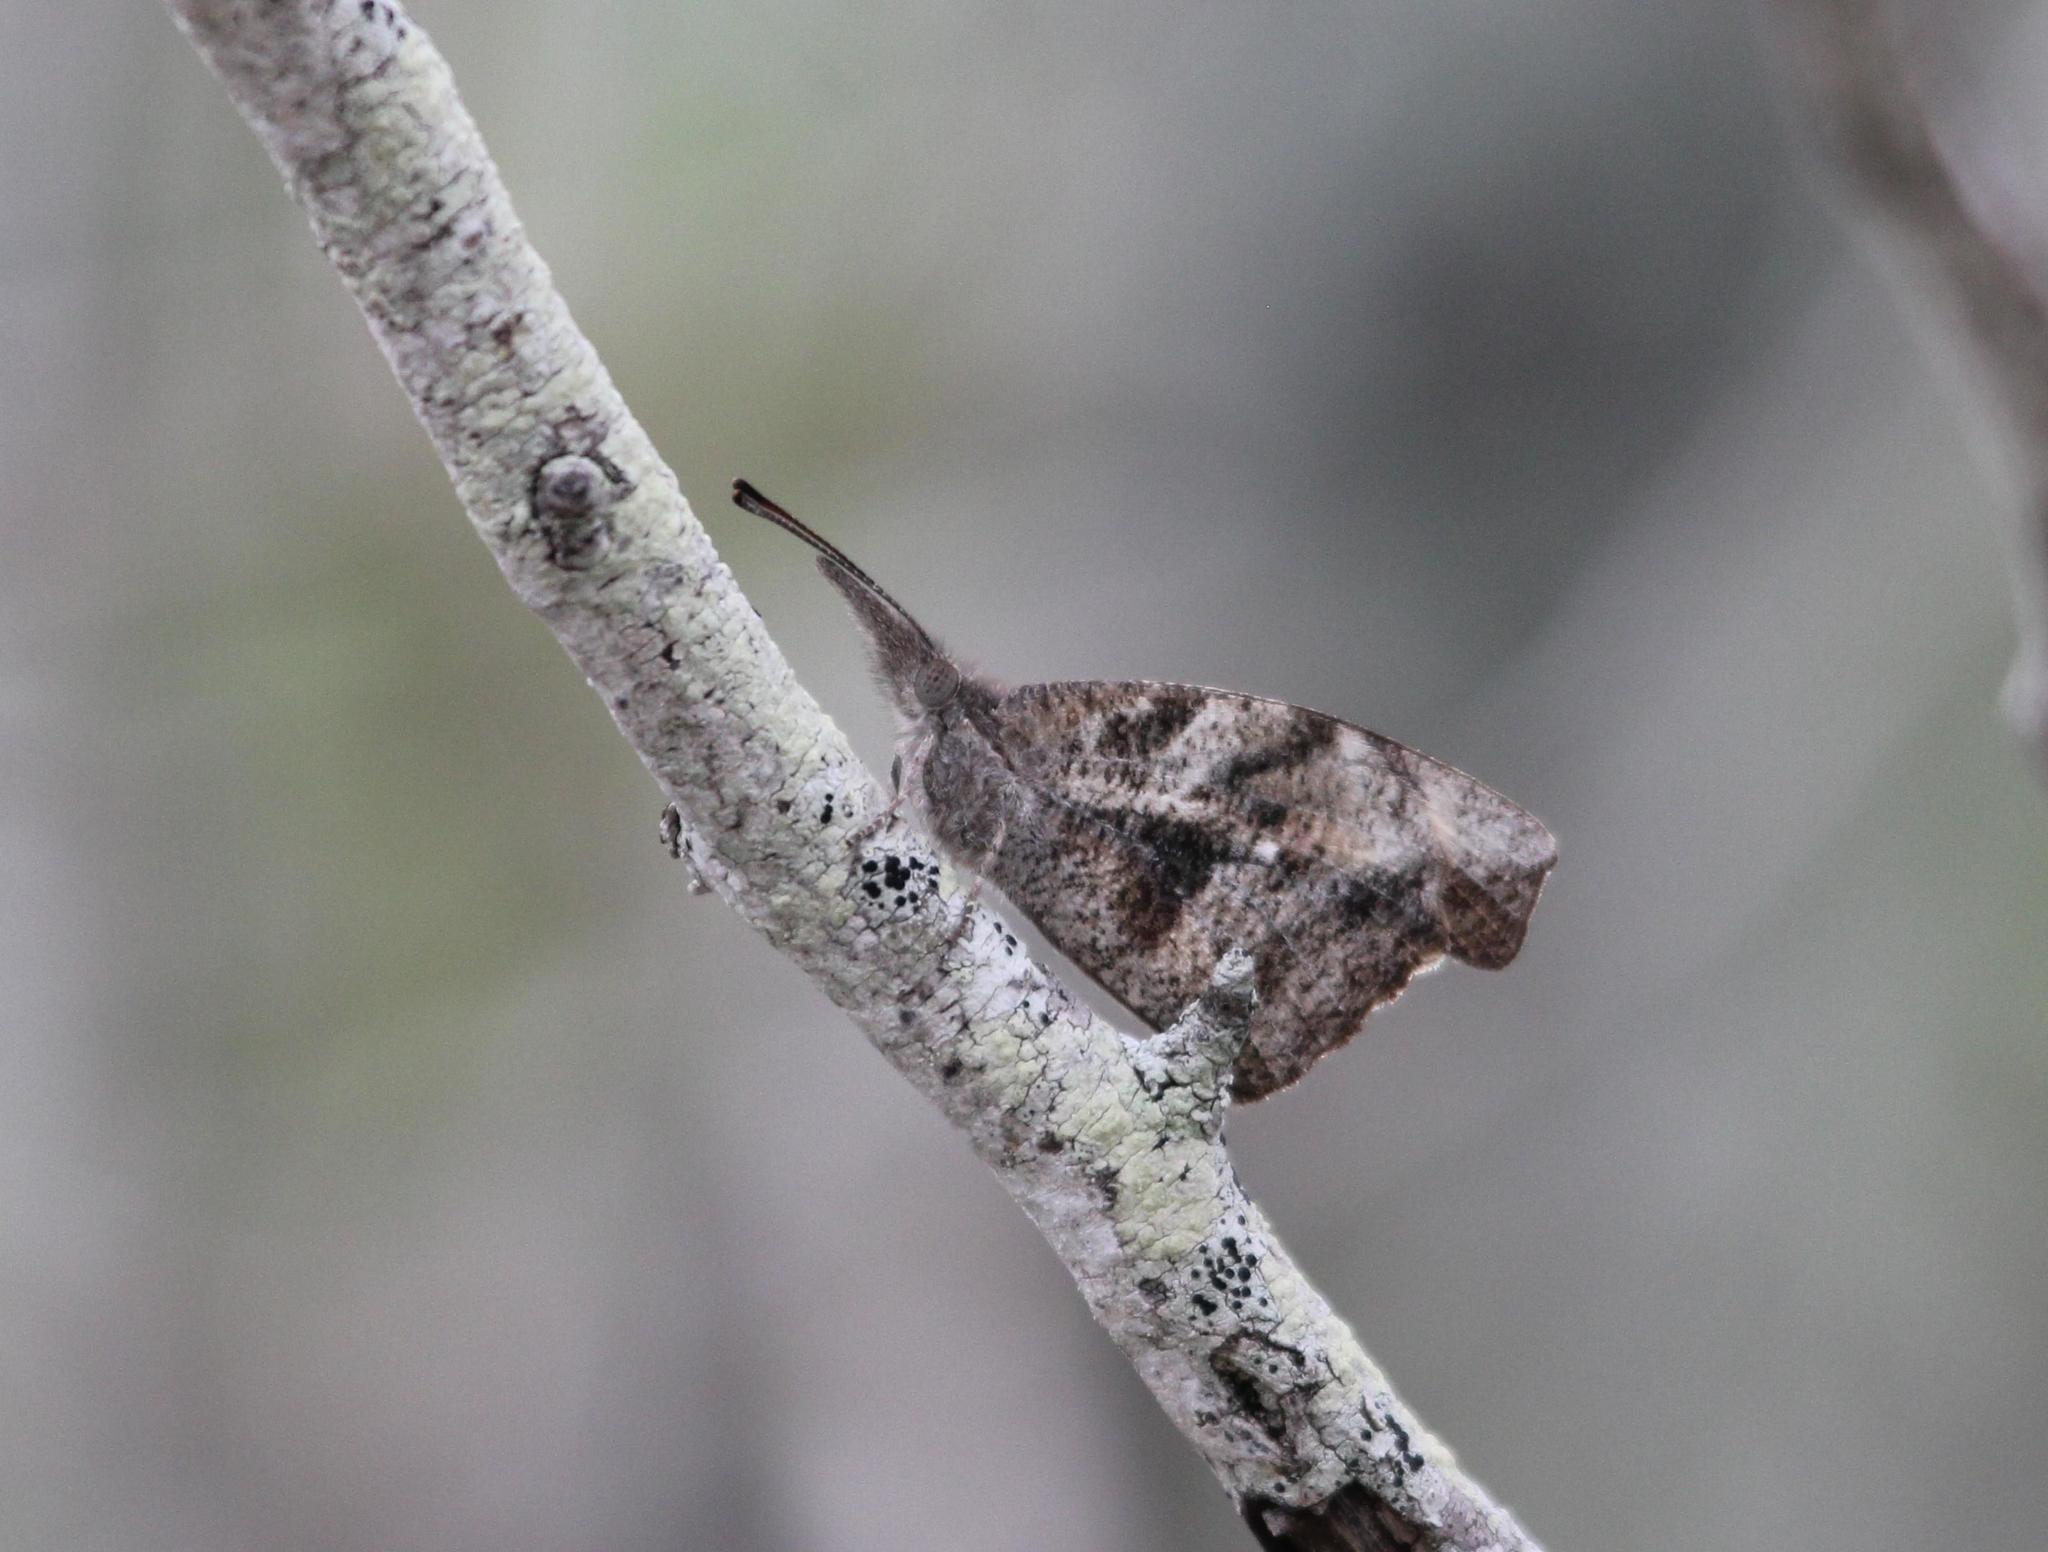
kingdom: Animalia
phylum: Arthropoda
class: Insecta
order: Lepidoptera
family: Nymphalidae
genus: Libytheana
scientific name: Libytheana carinenta
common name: American snout
